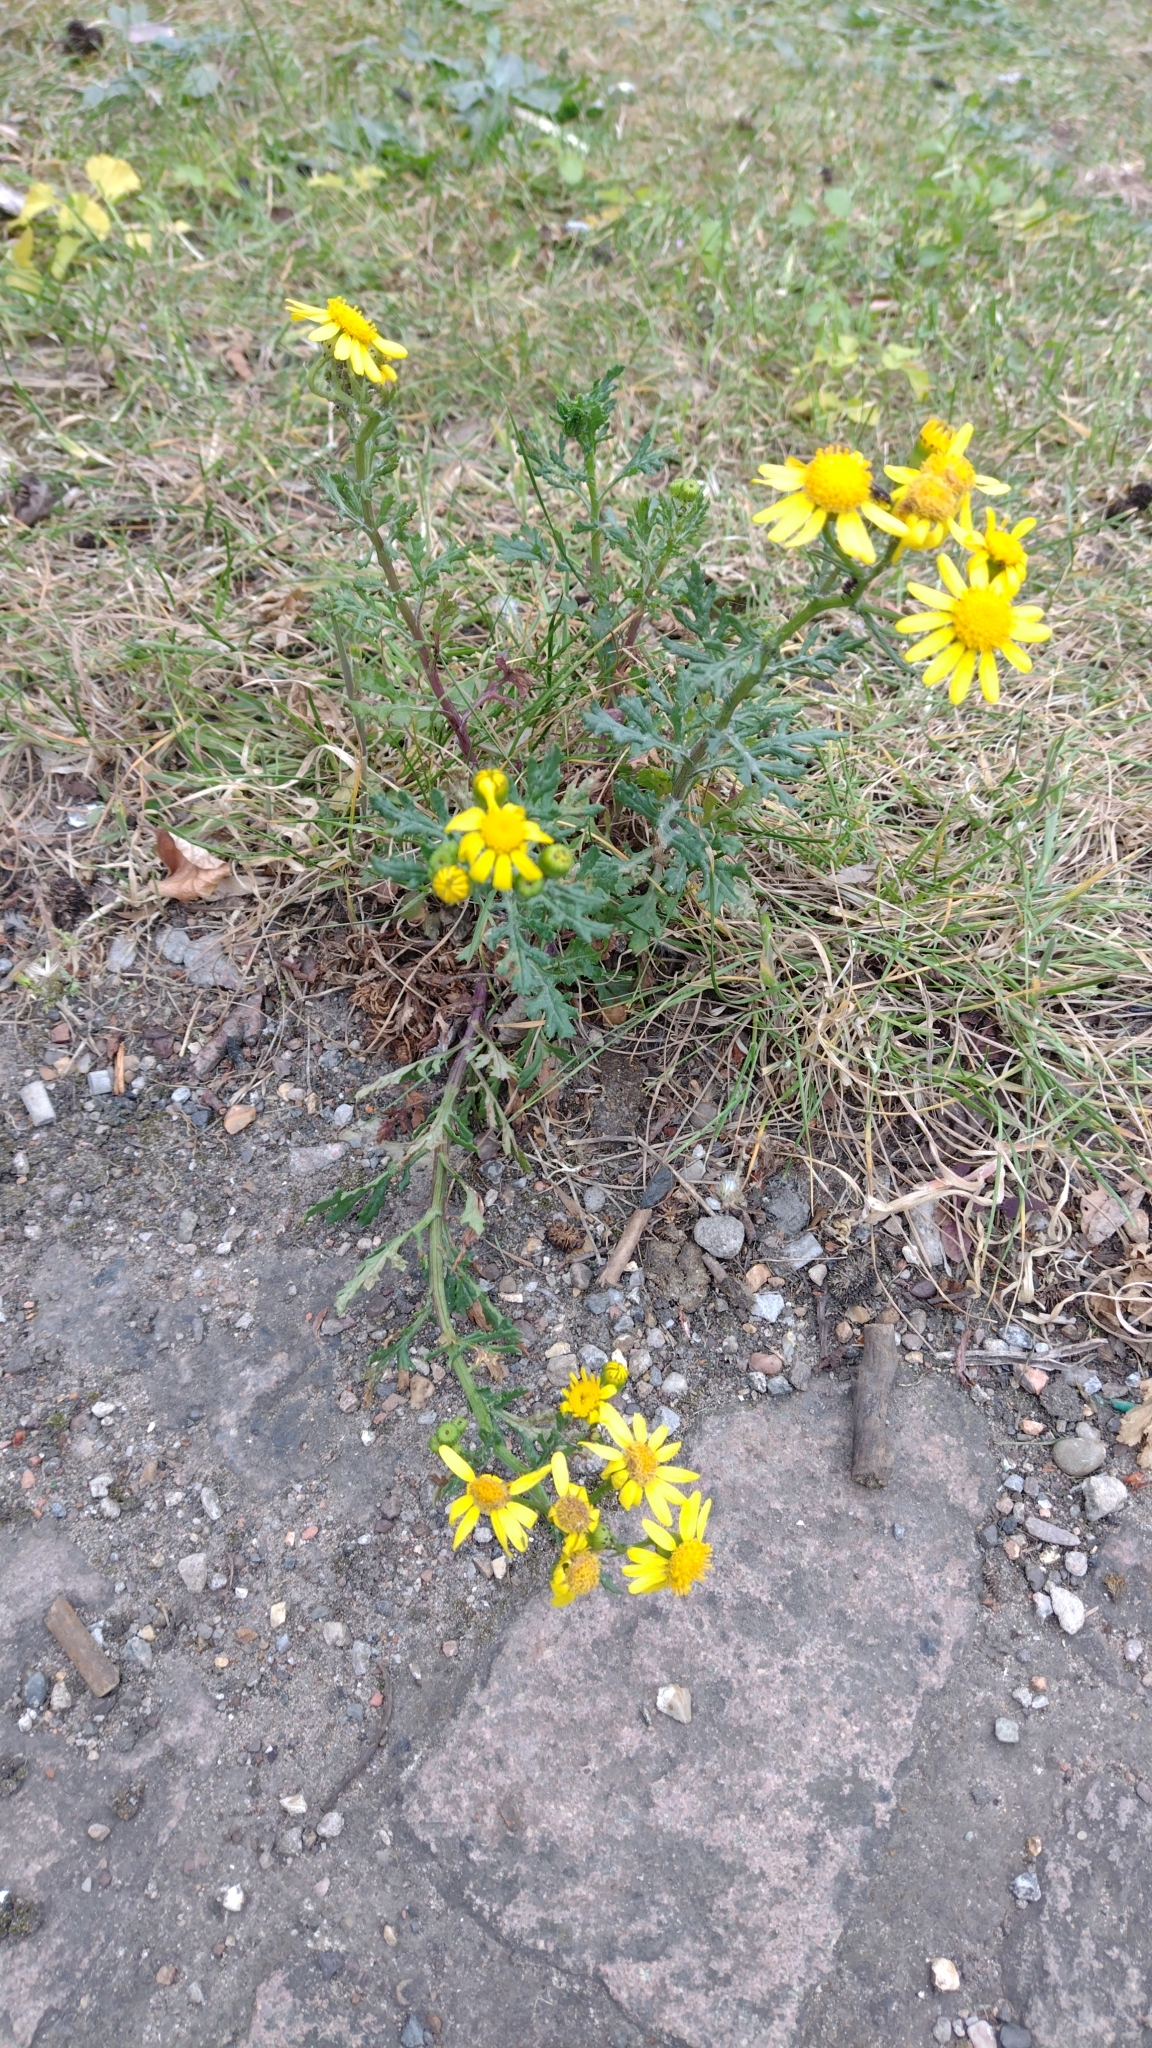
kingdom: Plantae
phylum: Tracheophyta
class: Magnoliopsida
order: Asterales
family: Asteraceae
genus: Senecio
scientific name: Senecio squalidus
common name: Oxford ragwort
